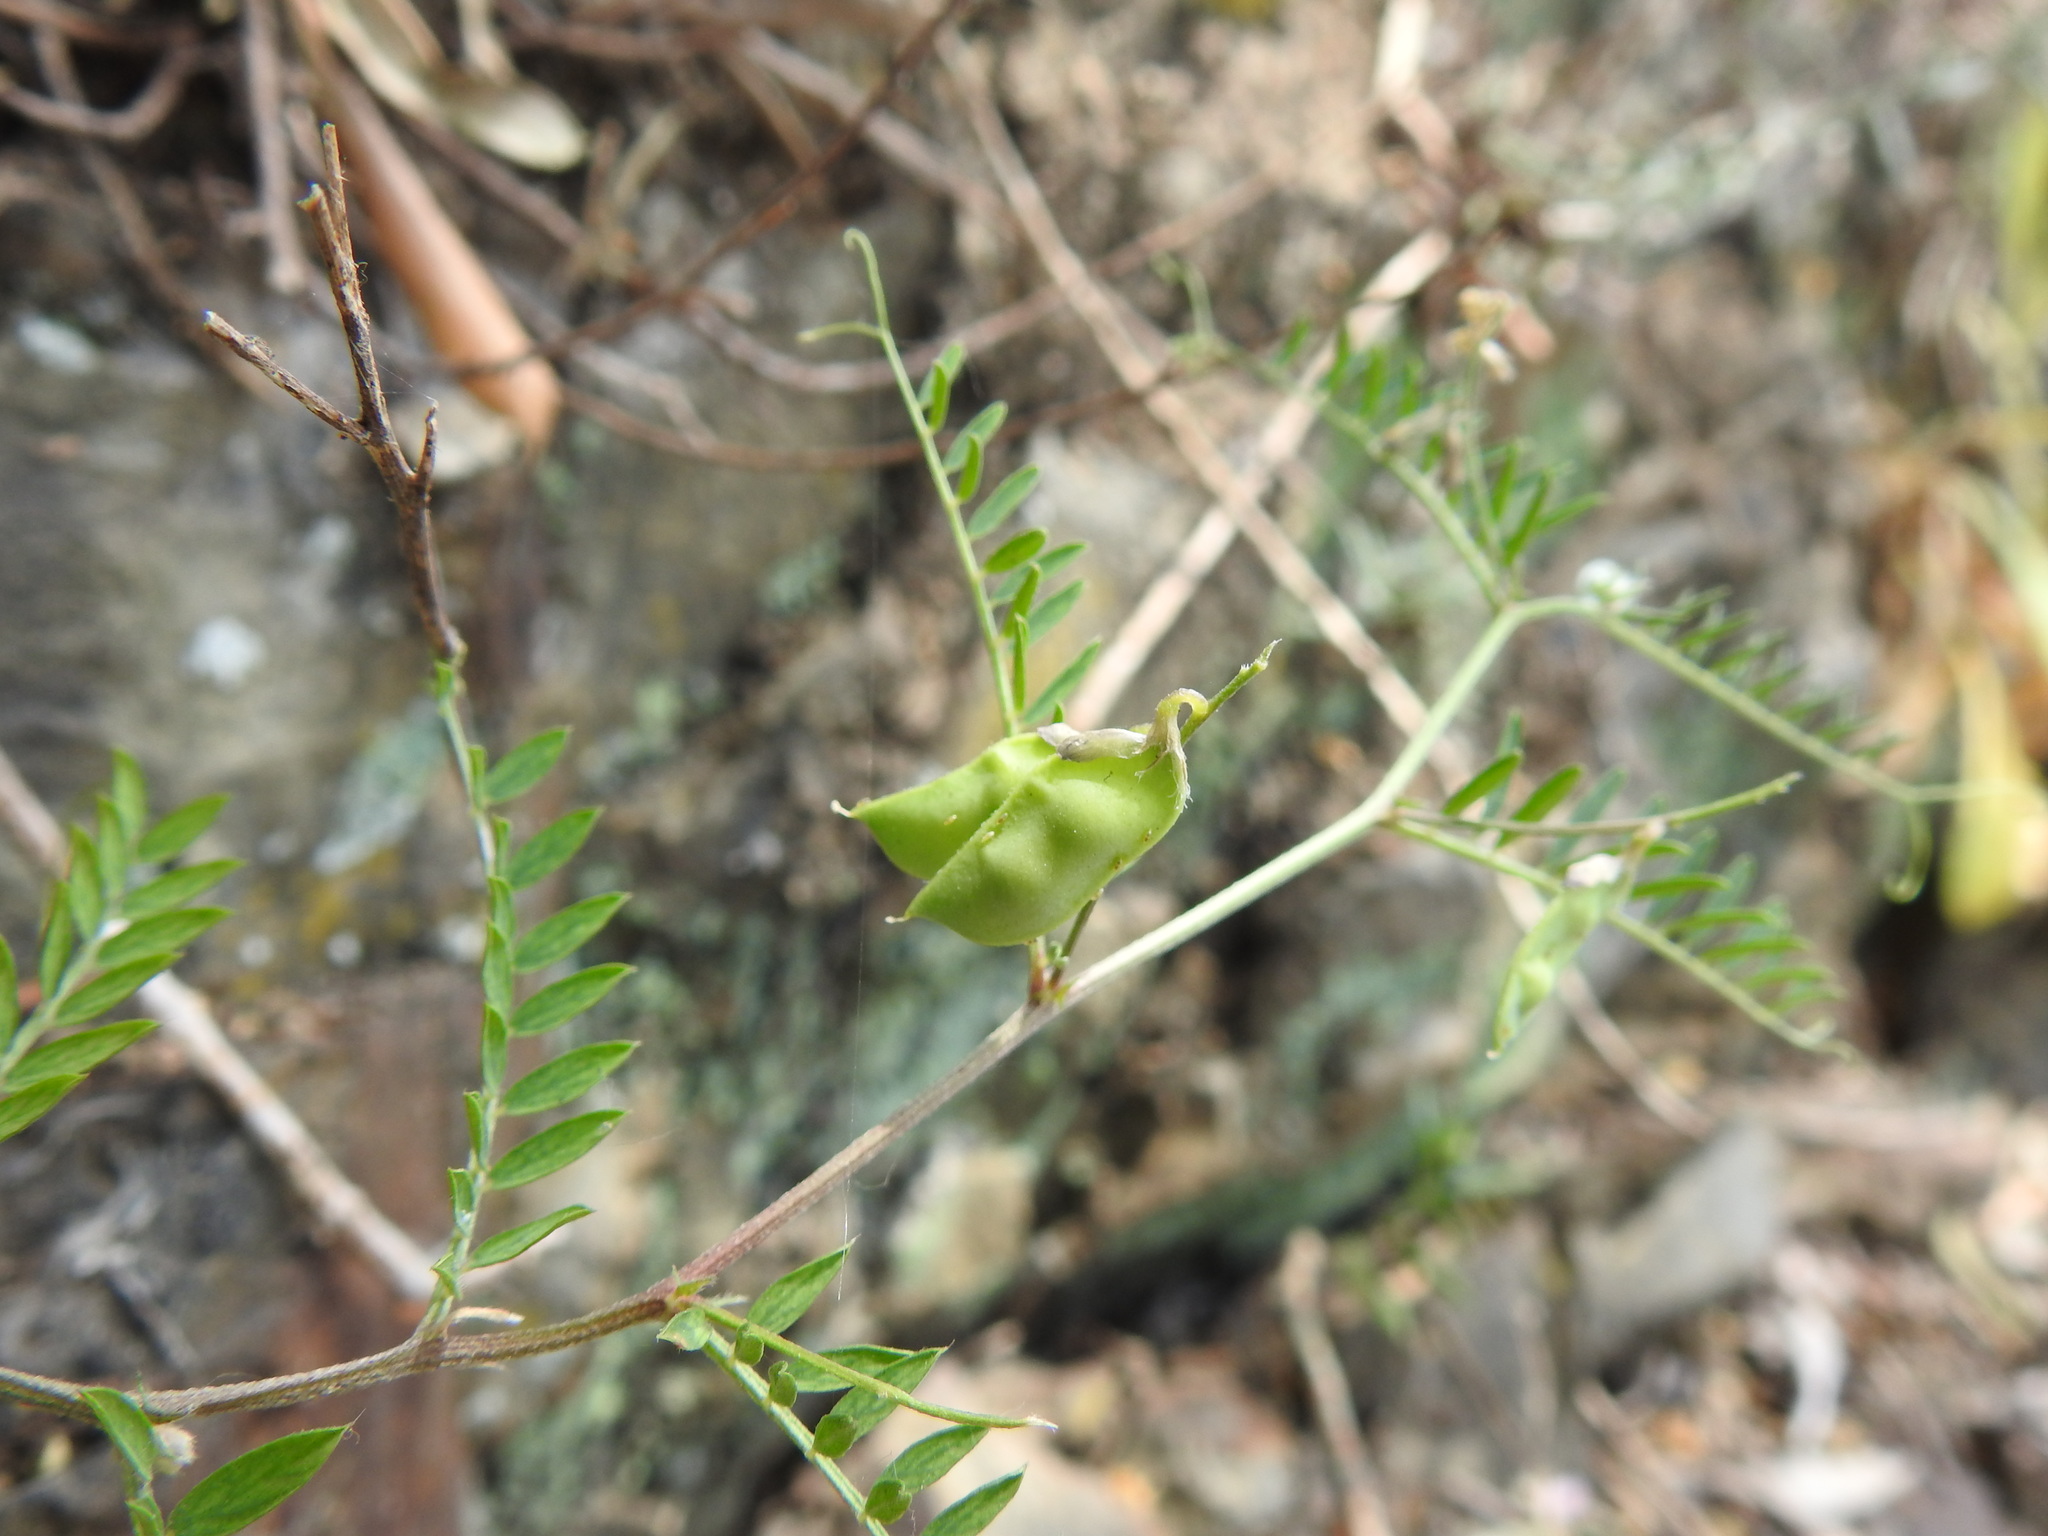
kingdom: Plantae
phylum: Tracheophyta
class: Magnoliopsida
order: Fabales
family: Fabaceae
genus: Vicia
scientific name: Vicia disperma
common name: European vetch
